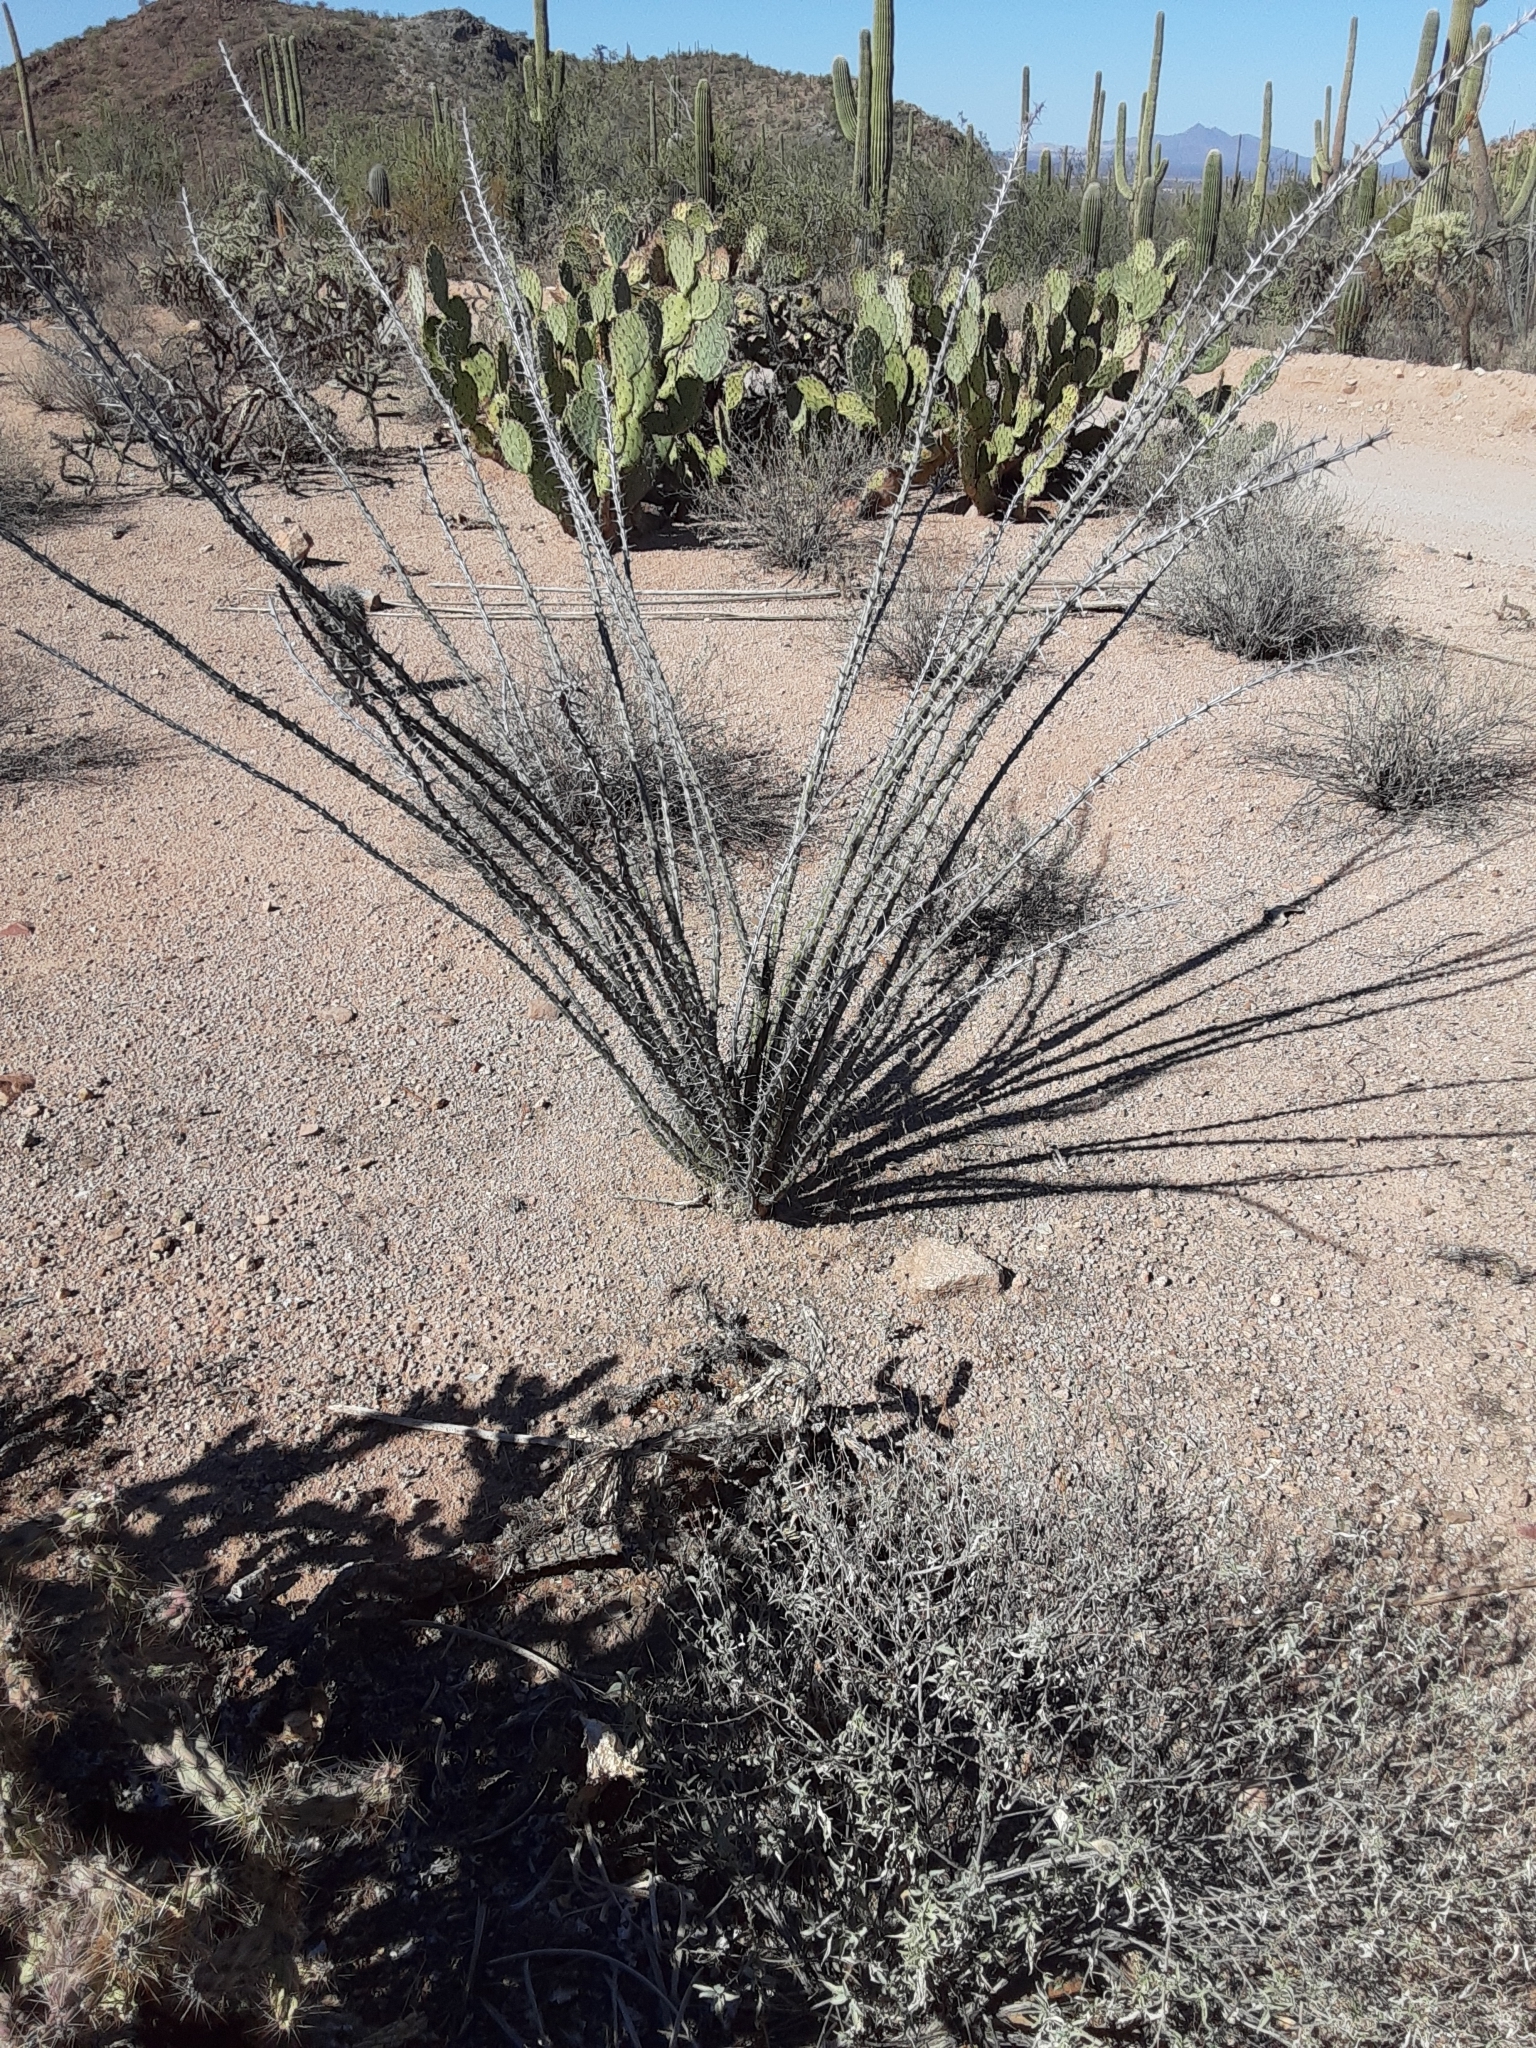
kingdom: Plantae
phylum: Tracheophyta
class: Magnoliopsida
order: Ericales
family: Fouquieriaceae
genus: Fouquieria
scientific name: Fouquieria splendens
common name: Vine-cactus
